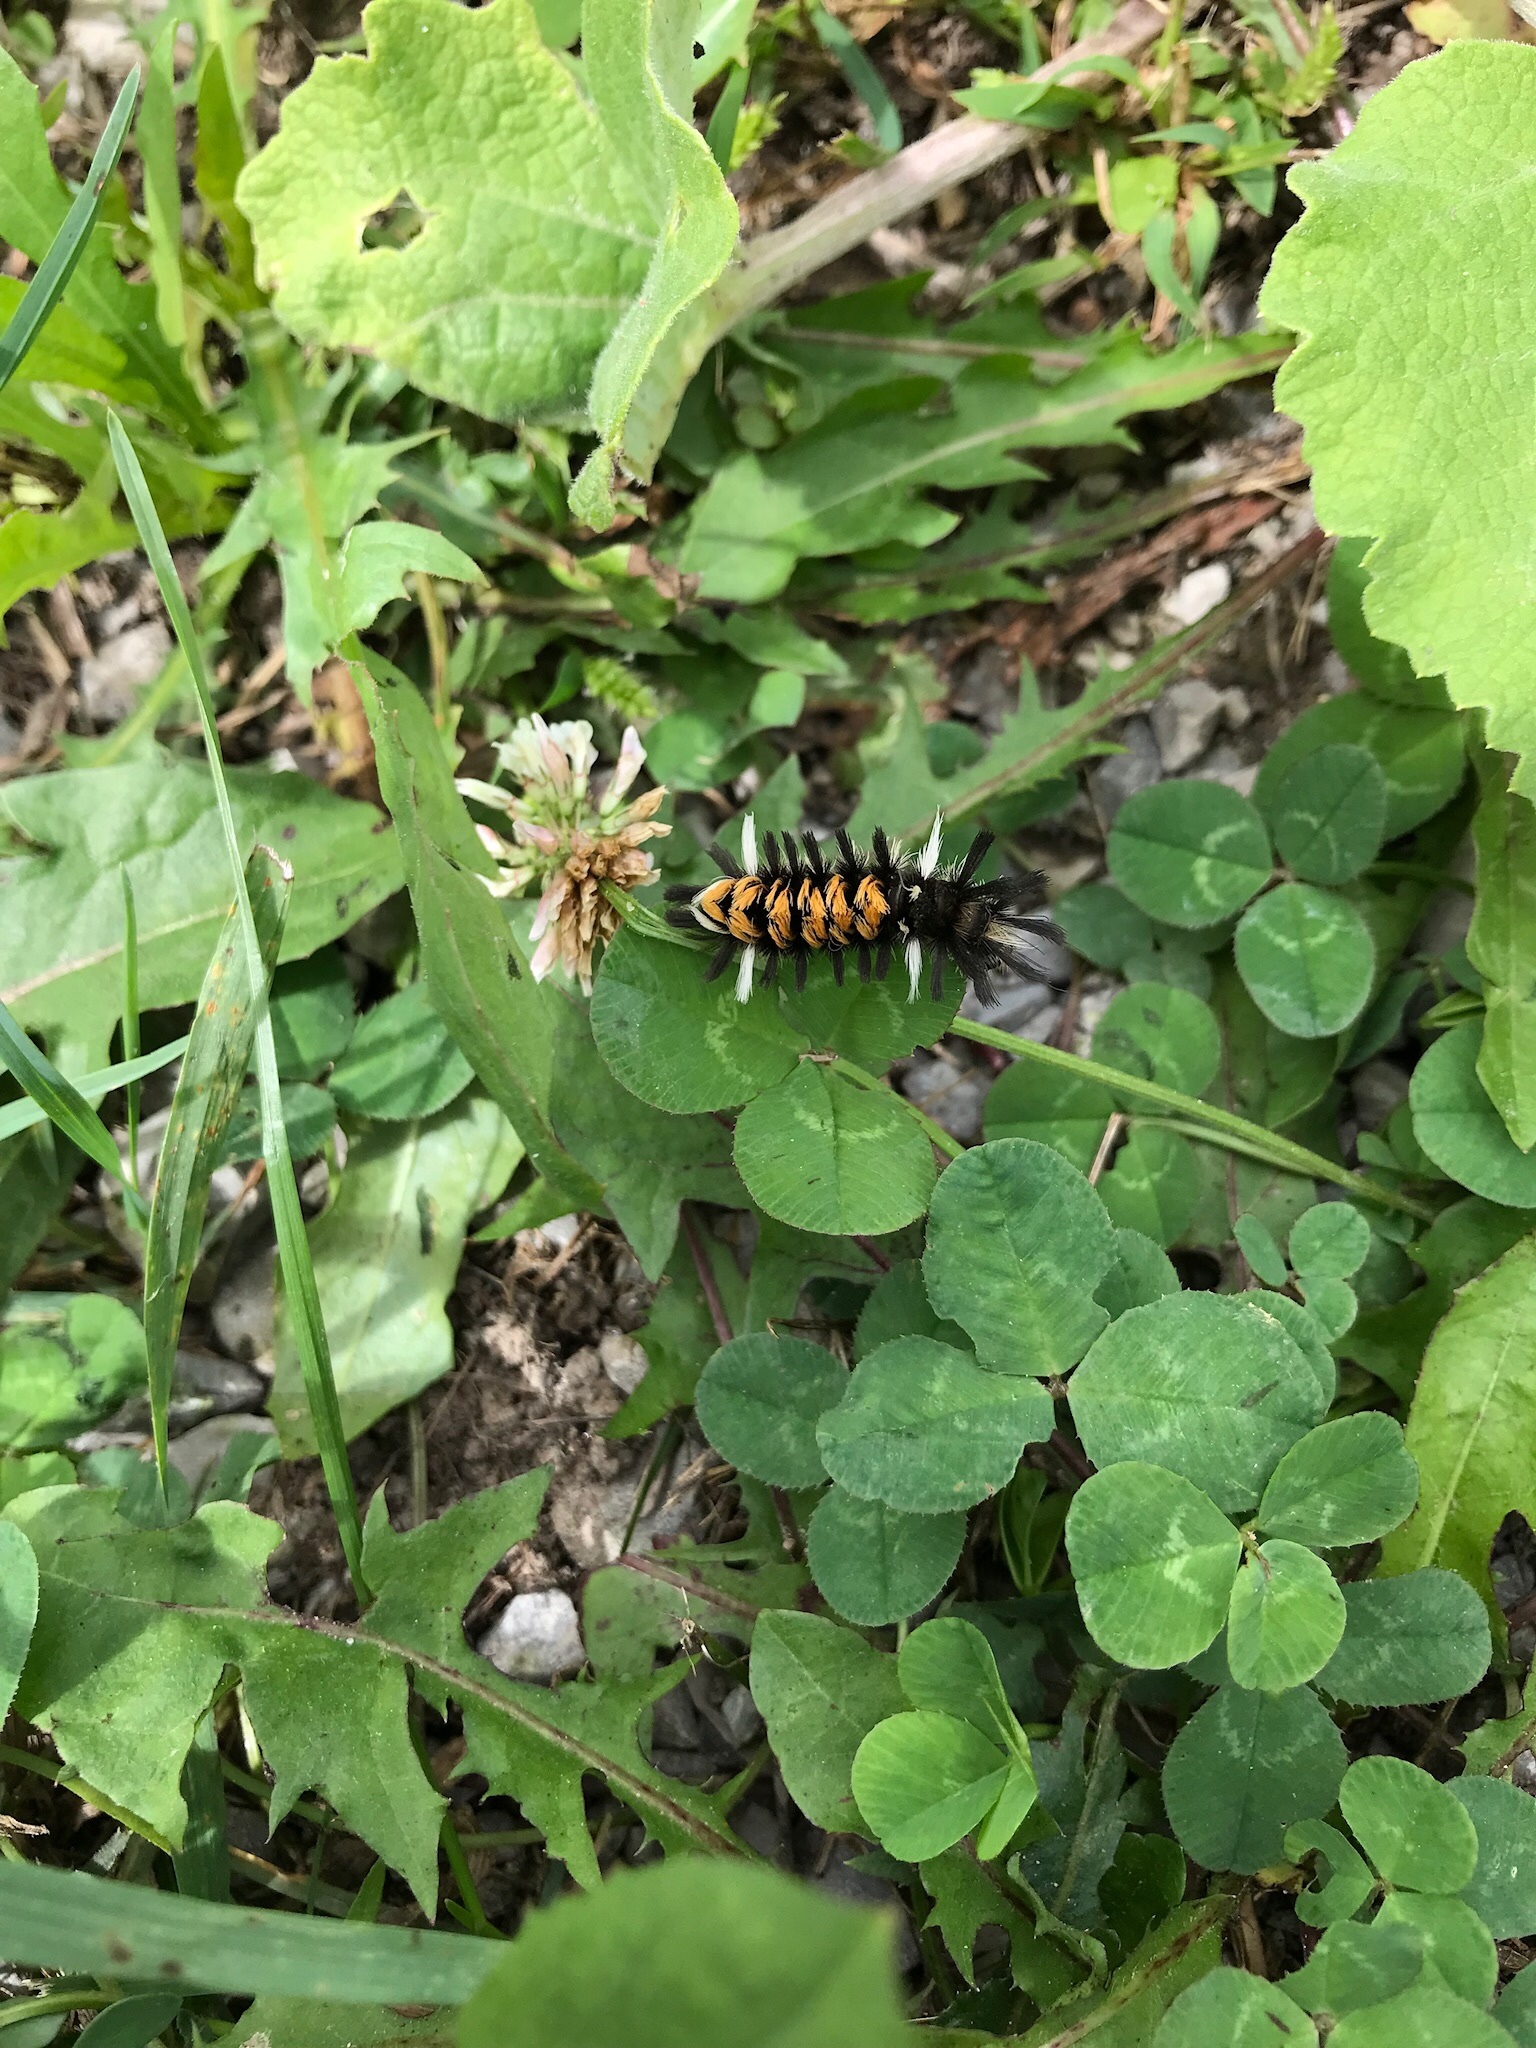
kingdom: Animalia
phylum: Arthropoda
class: Insecta
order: Lepidoptera
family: Erebidae
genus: Euchaetes
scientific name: Euchaetes egle
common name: Milkweed tussock moth
